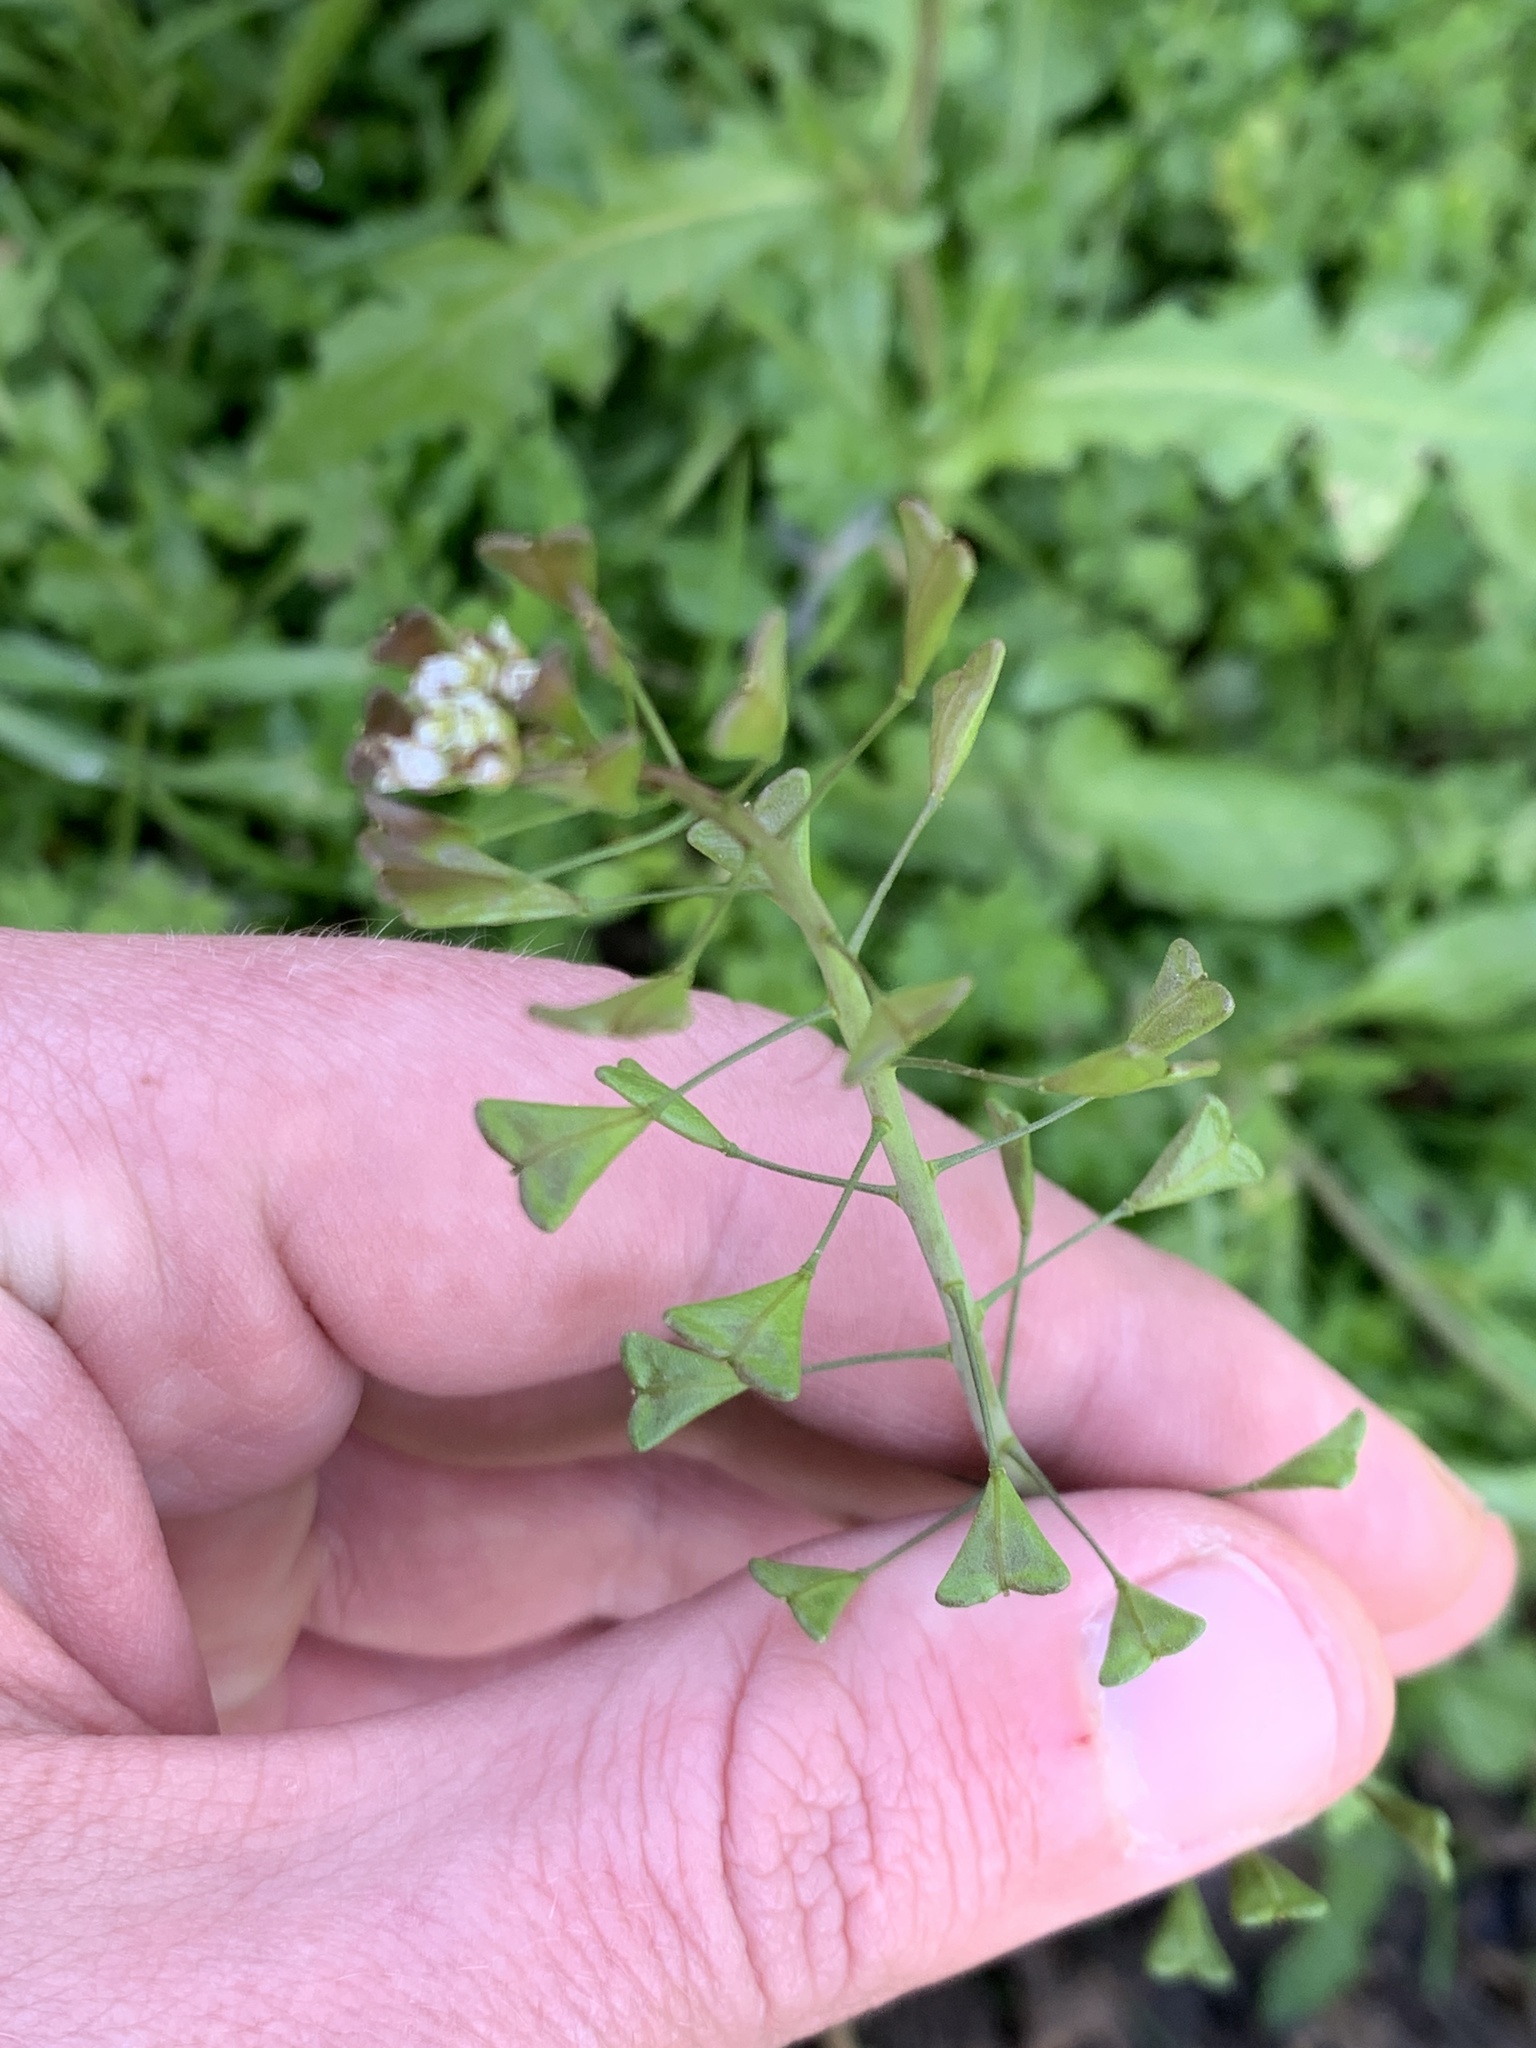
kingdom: Plantae
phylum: Tracheophyta
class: Magnoliopsida
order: Brassicales
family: Brassicaceae
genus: Capsella
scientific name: Capsella bursa-pastoris
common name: Shepherd's purse
